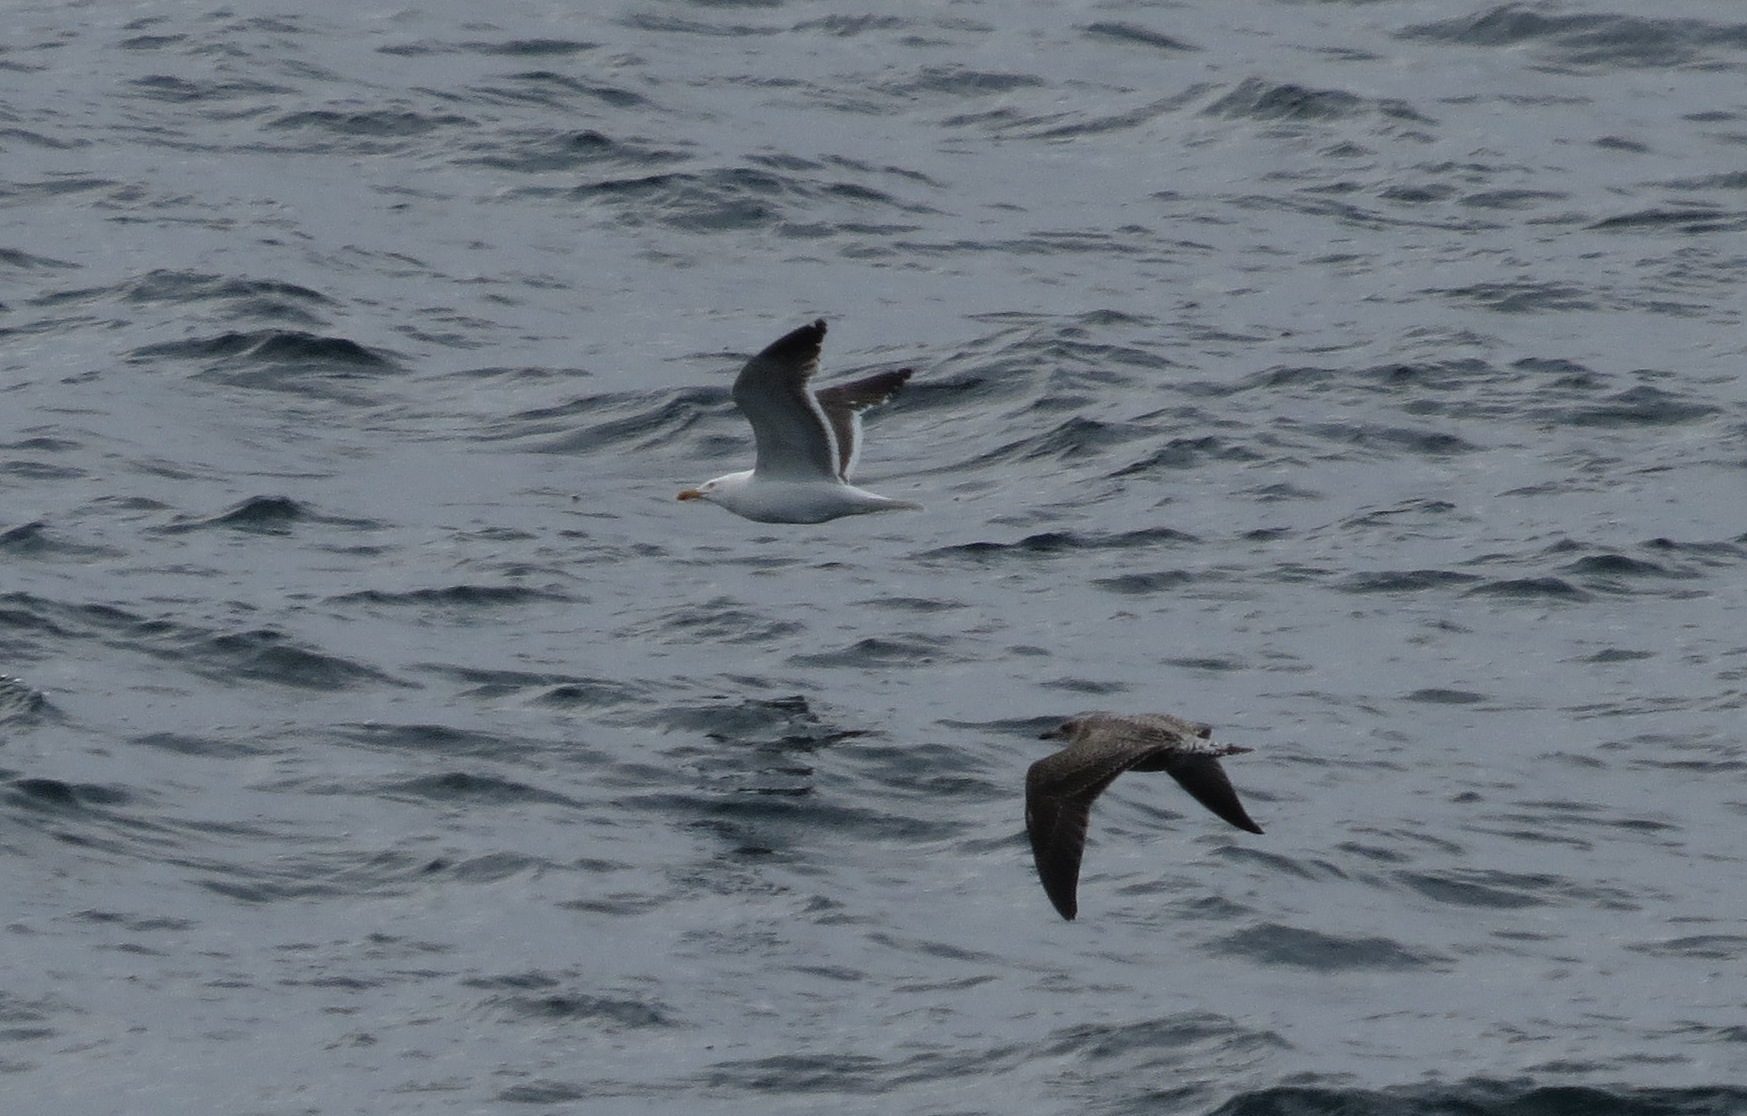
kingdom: Animalia
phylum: Chordata
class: Aves
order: Charadriiformes
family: Laridae
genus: Larus
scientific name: Larus fuscus
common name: Lesser black-backed gull
